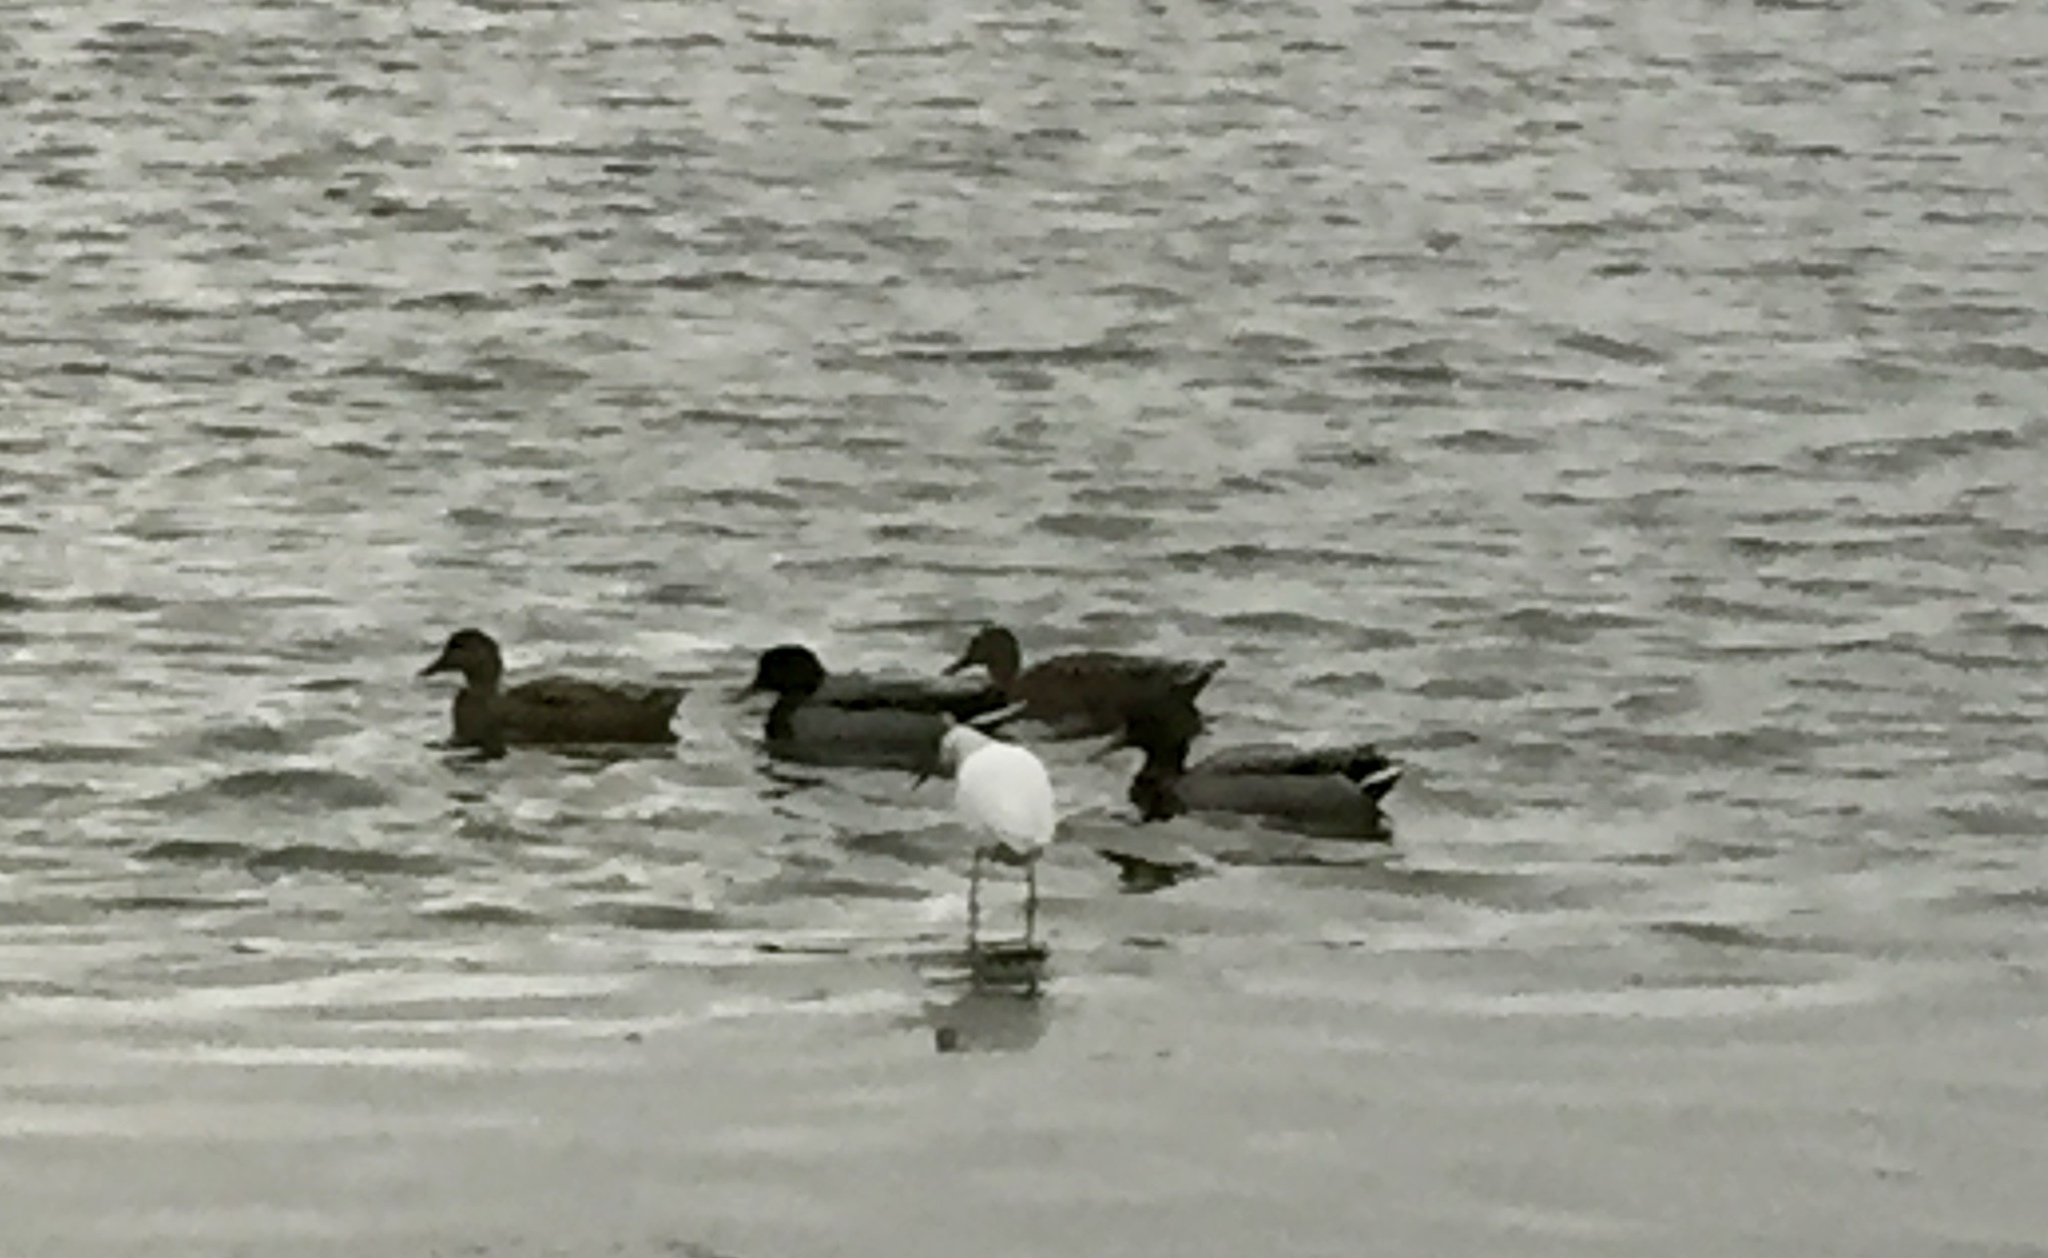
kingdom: Animalia
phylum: Chordata
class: Aves
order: Anseriformes
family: Anatidae
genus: Anas
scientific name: Anas platyrhynchos
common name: Mallard
